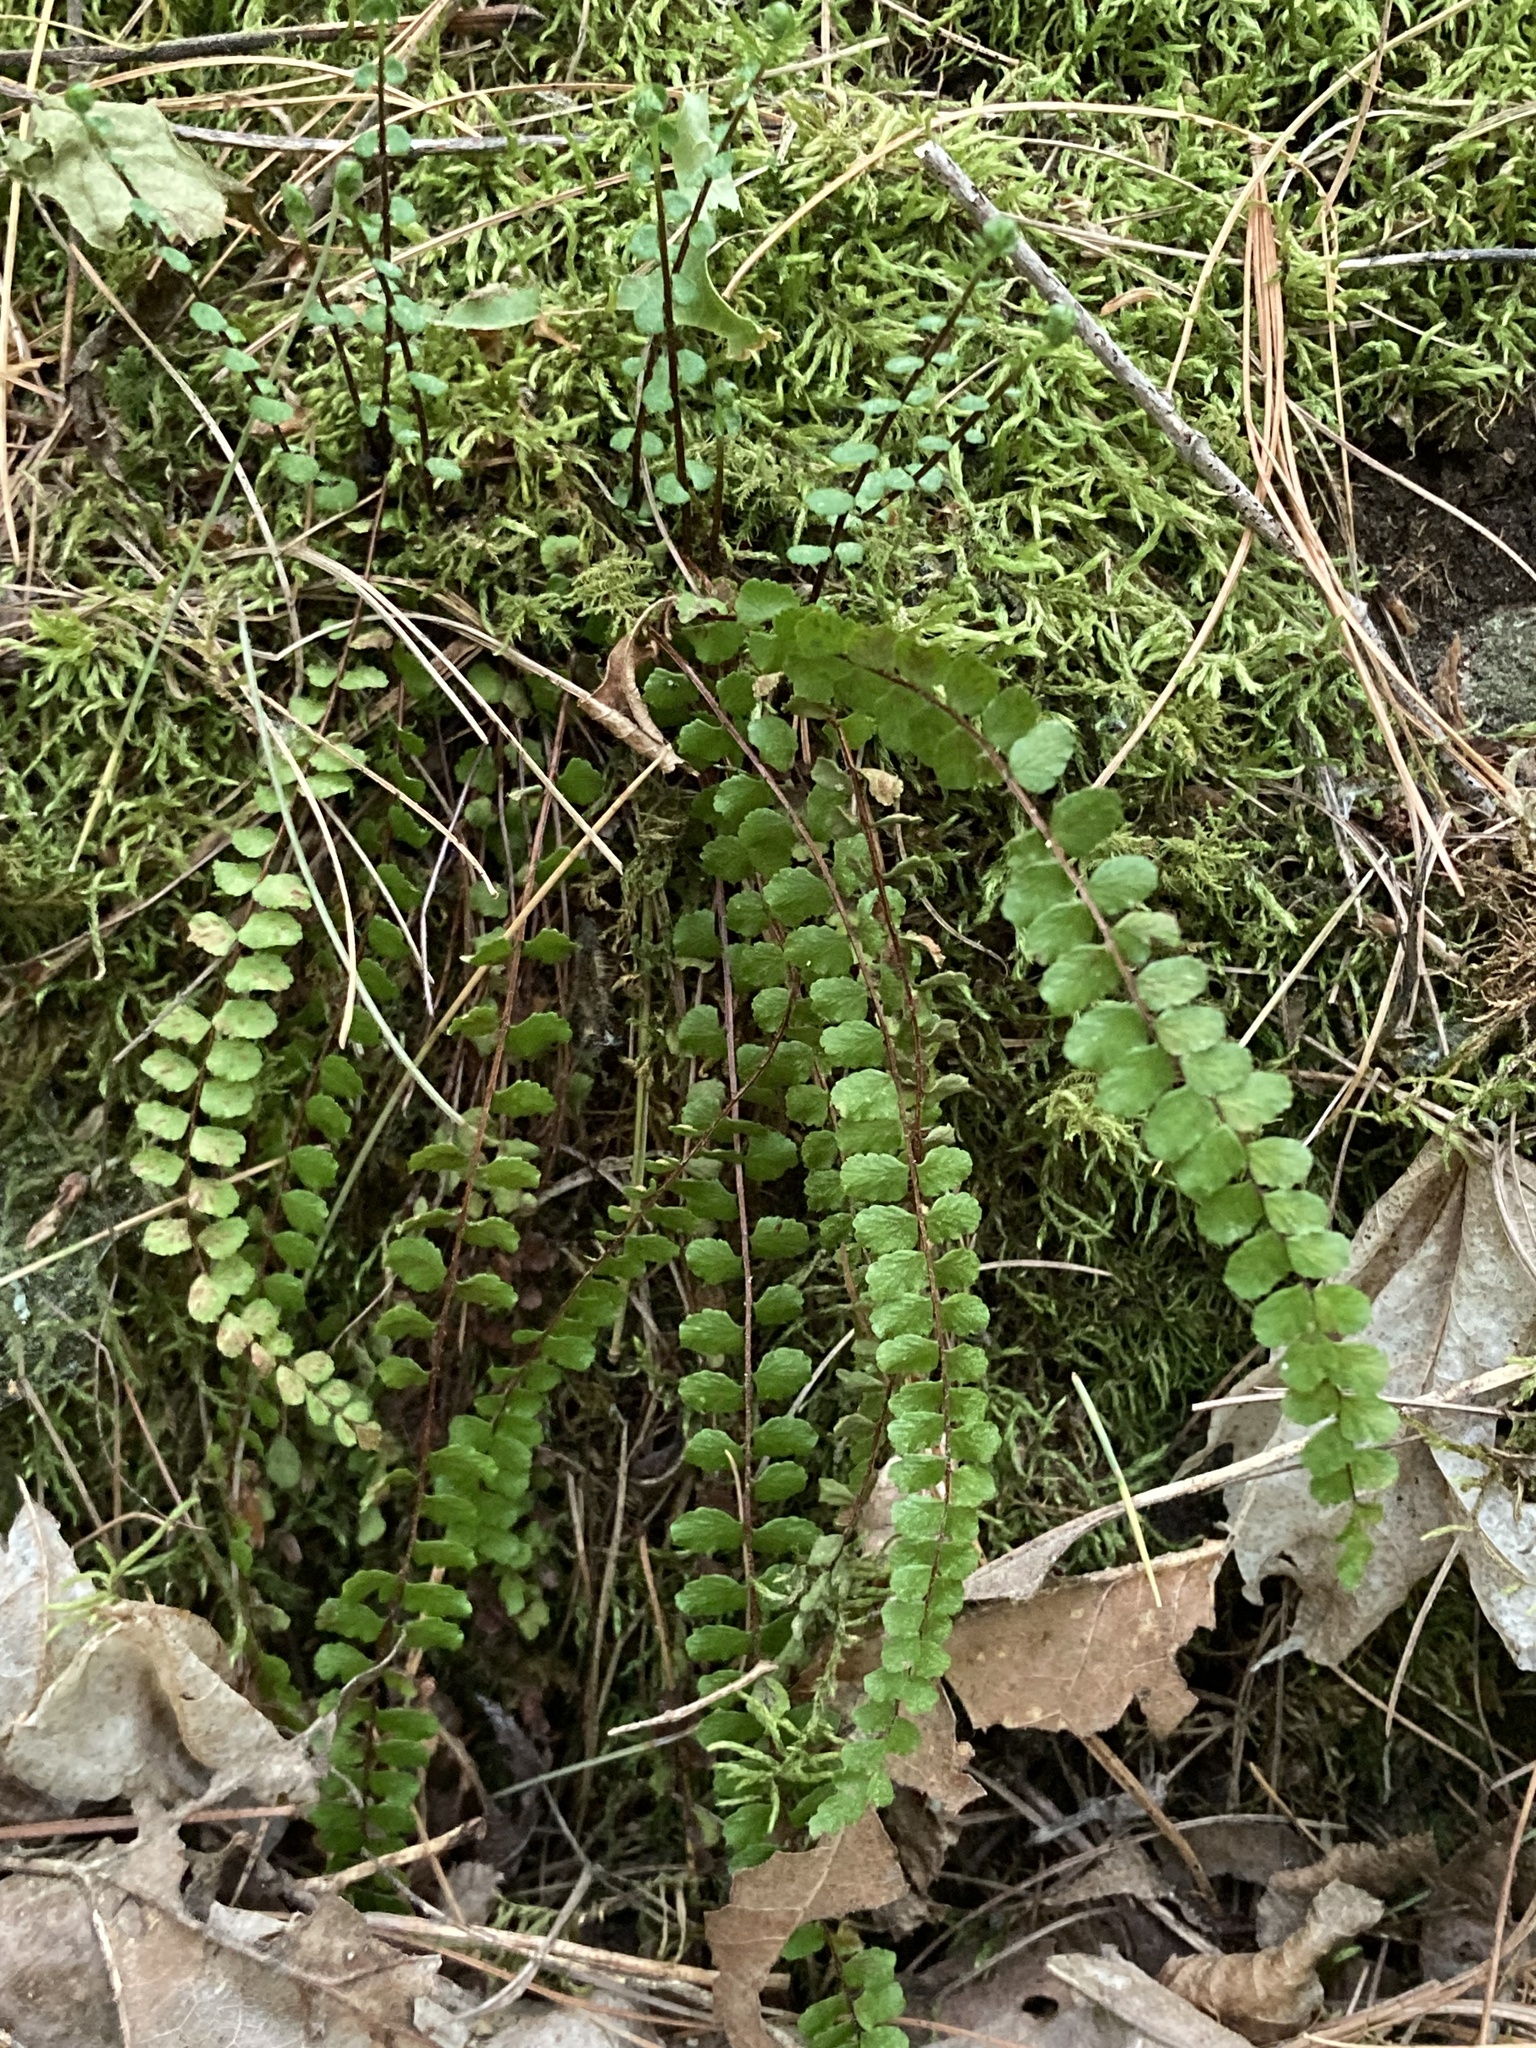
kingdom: Plantae
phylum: Tracheophyta
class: Polypodiopsida
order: Polypodiales
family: Aspleniaceae
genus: Asplenium
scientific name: Asplenium trichomanes
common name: Maidenhair spleenwort
